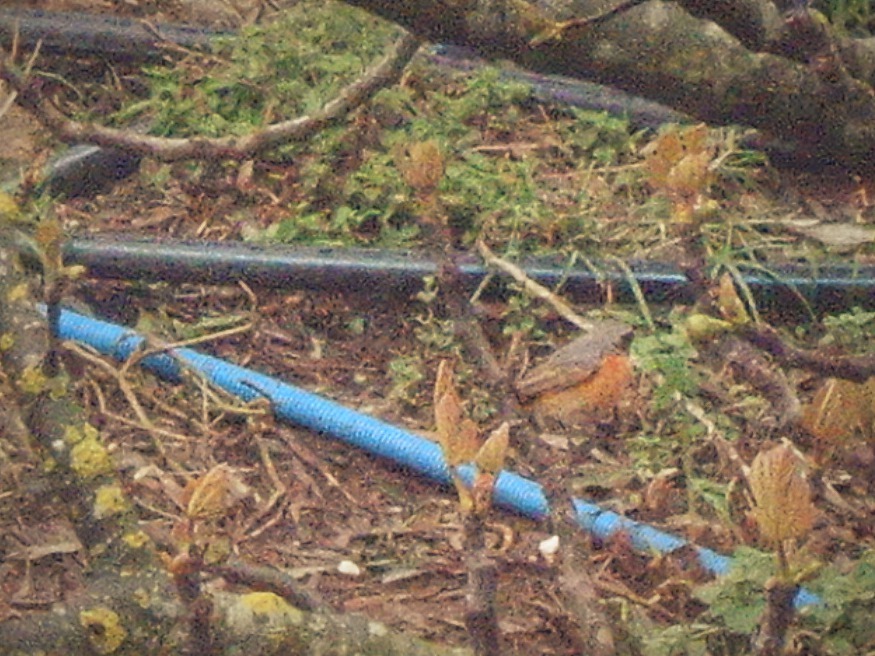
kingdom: Animalia
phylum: Chordata
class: Aves
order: Passeriformes
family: Muscicapidae
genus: Phoenicurus
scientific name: Phoenicurus phoenicurus
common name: Common redstart
